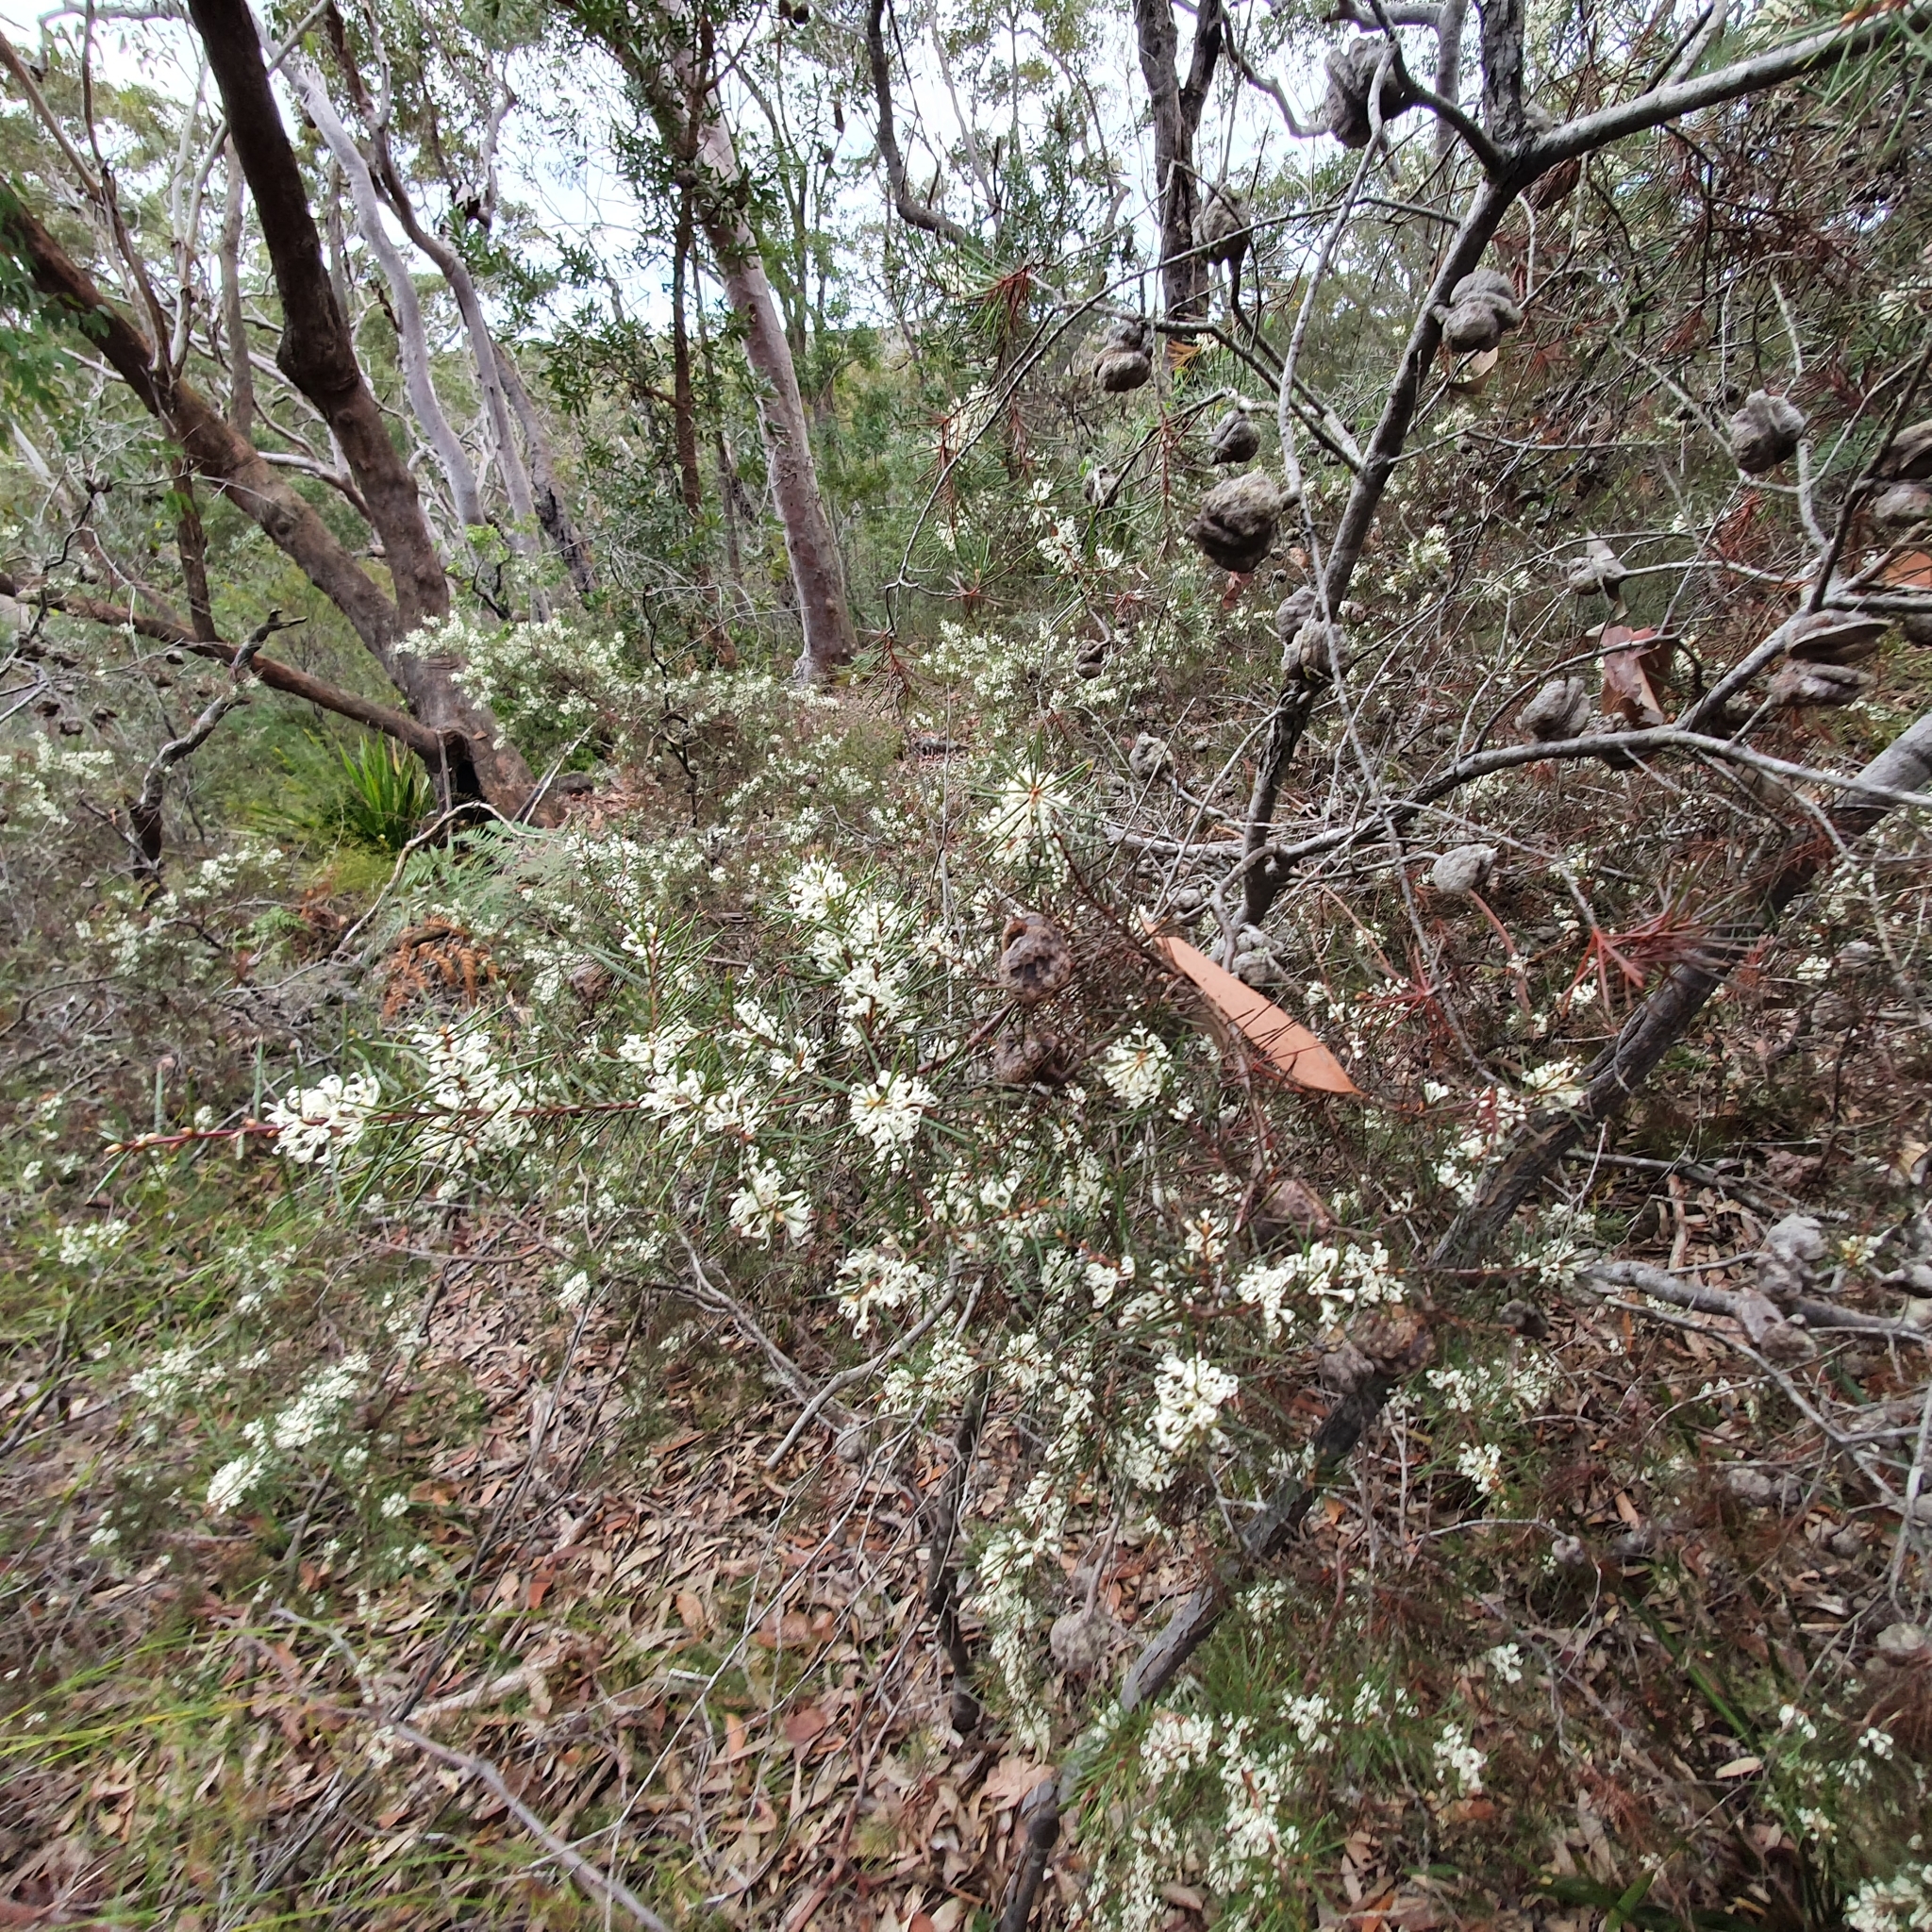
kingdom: Plantae
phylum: Tracheophyta
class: Magnoliopsida
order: Proteales
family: Proteaceae
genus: Hakea
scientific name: Hakea sericea
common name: Needle bush
